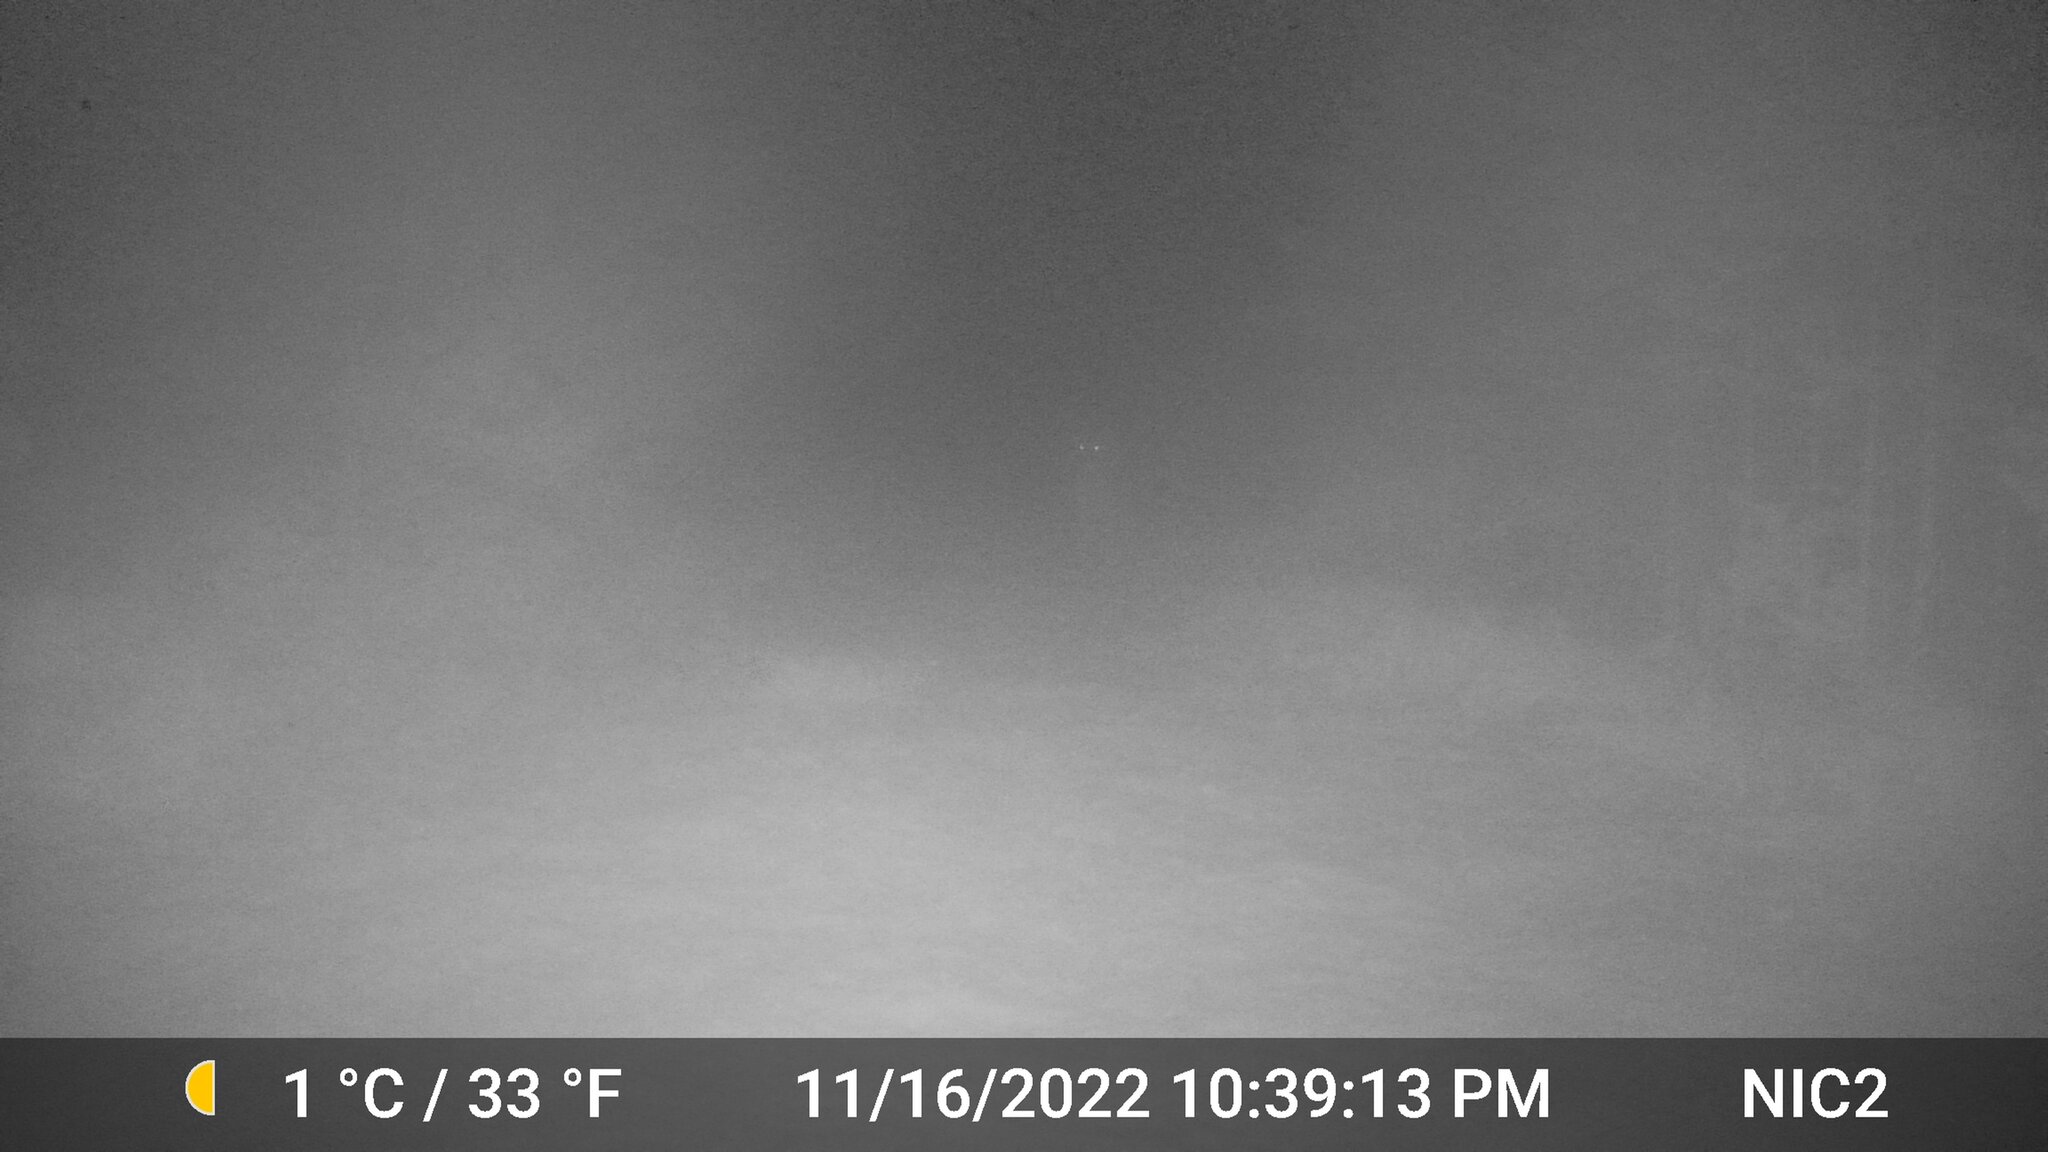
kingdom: Animalia
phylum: Chordata
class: Mammalia
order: Carnivora
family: Canidae
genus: Canis
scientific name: Canis latrans
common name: Coyote
